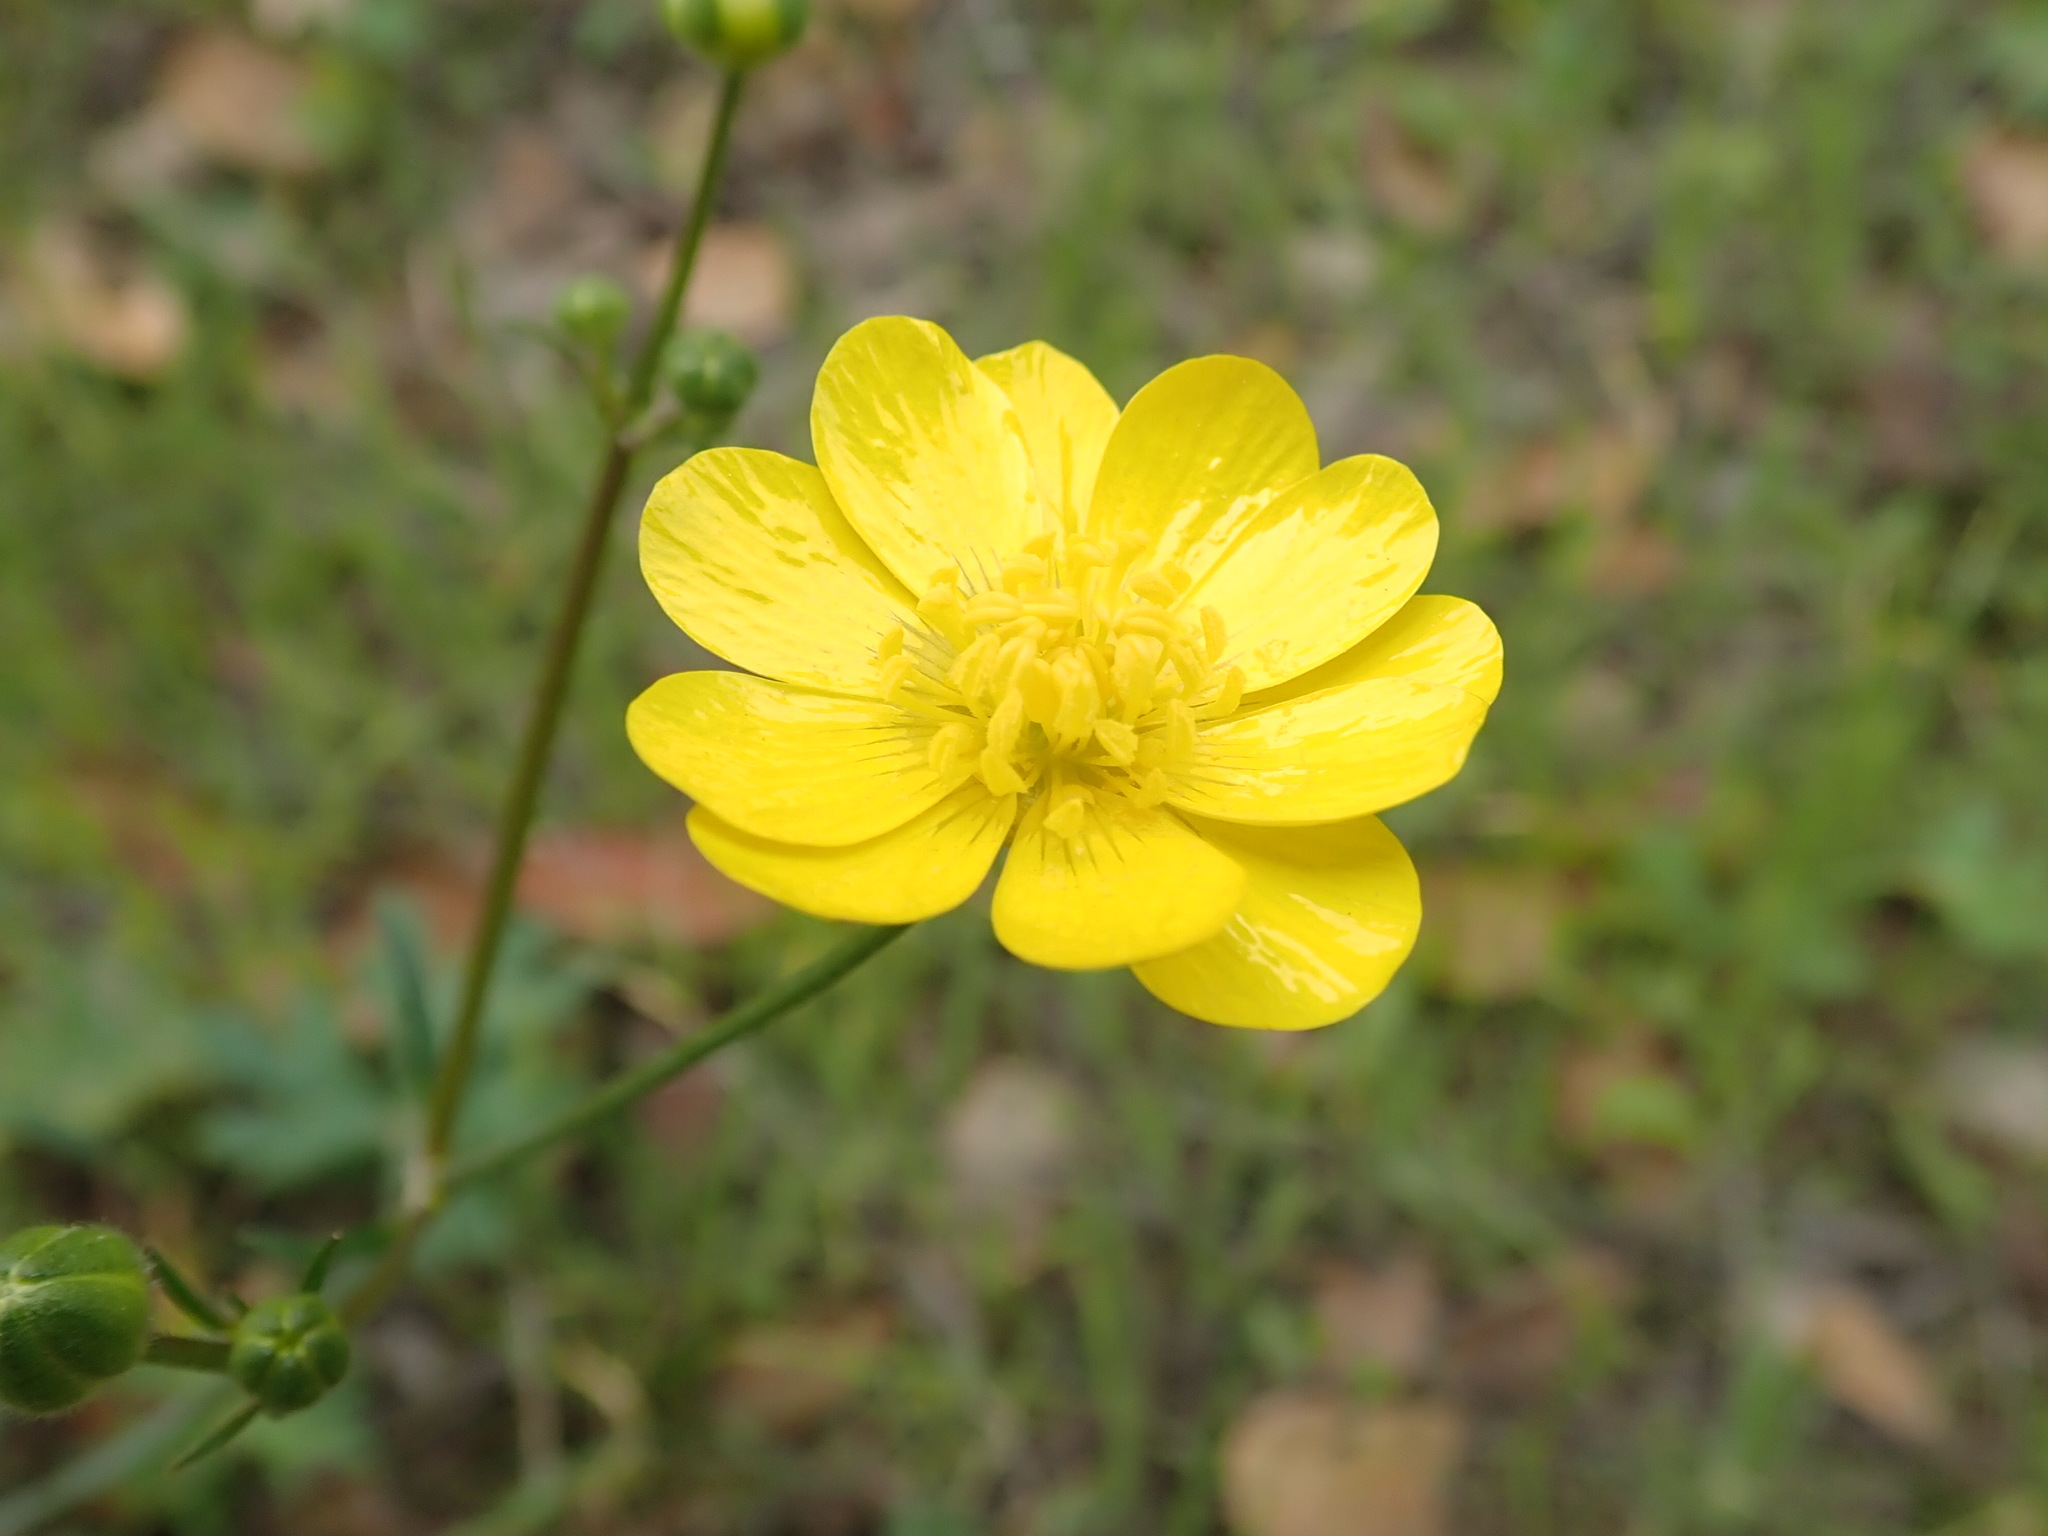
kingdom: Plantae
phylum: Tracheophyta
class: Magnoliopsida
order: Ranunculales
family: Ranunculaceae
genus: Ranunculus
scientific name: Ranunculus californicus
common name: California buttercup
